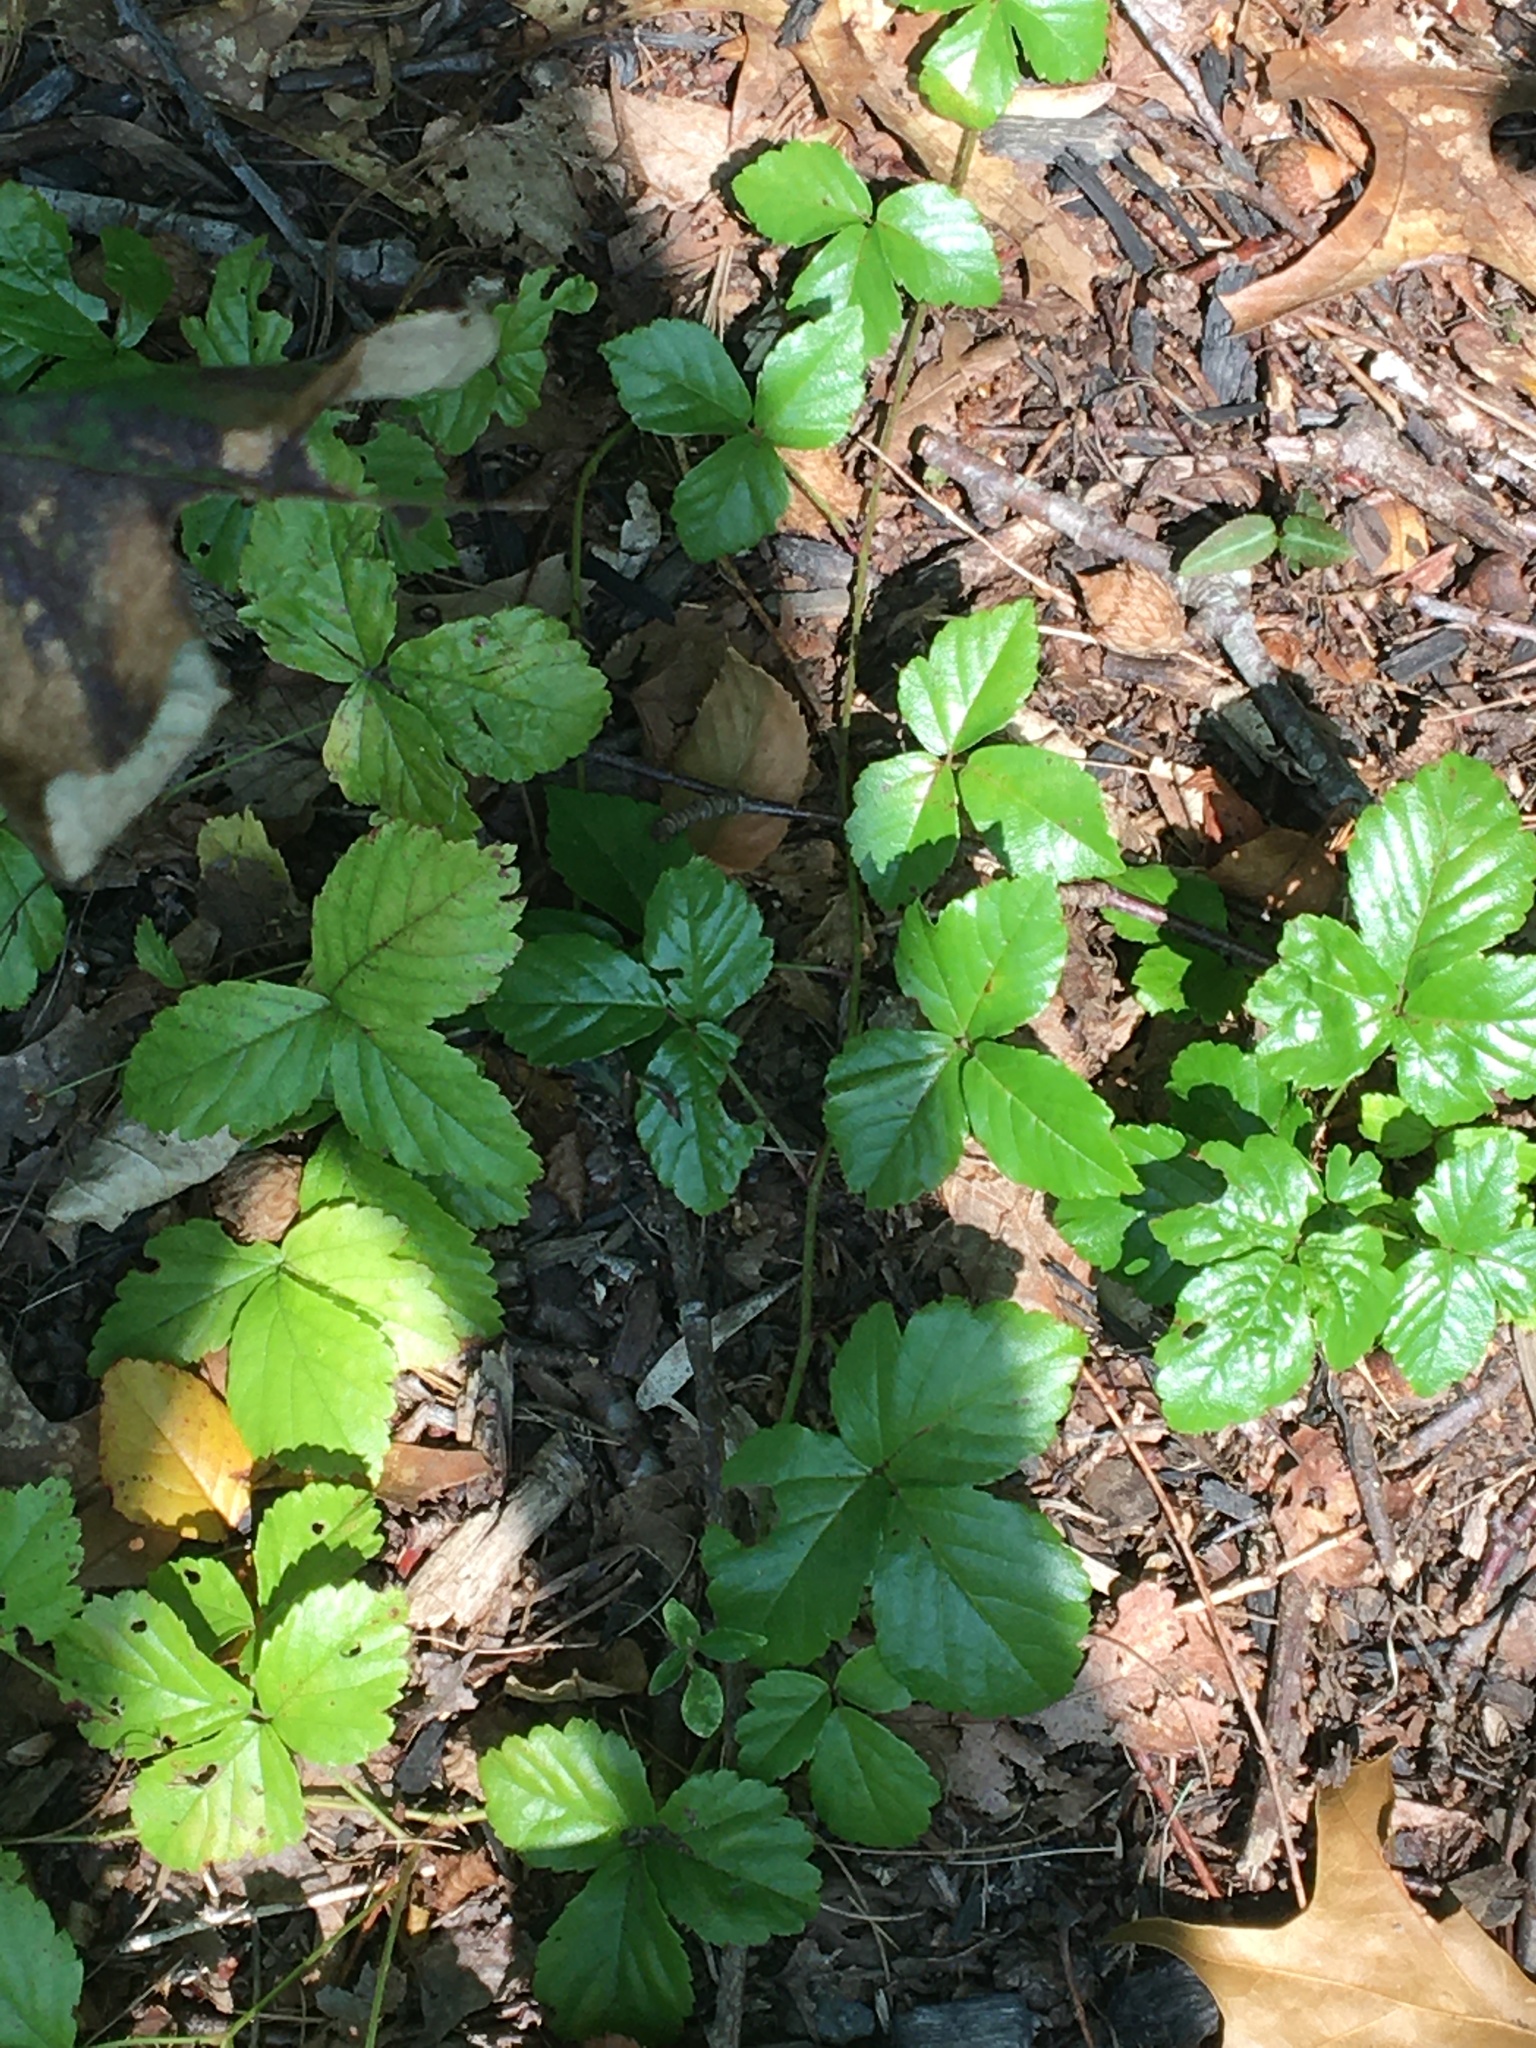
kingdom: Plantae
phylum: Tracheophyta
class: Magnoliopsida
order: Rosales
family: Rosaceae
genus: Rubus
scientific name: Rubus
